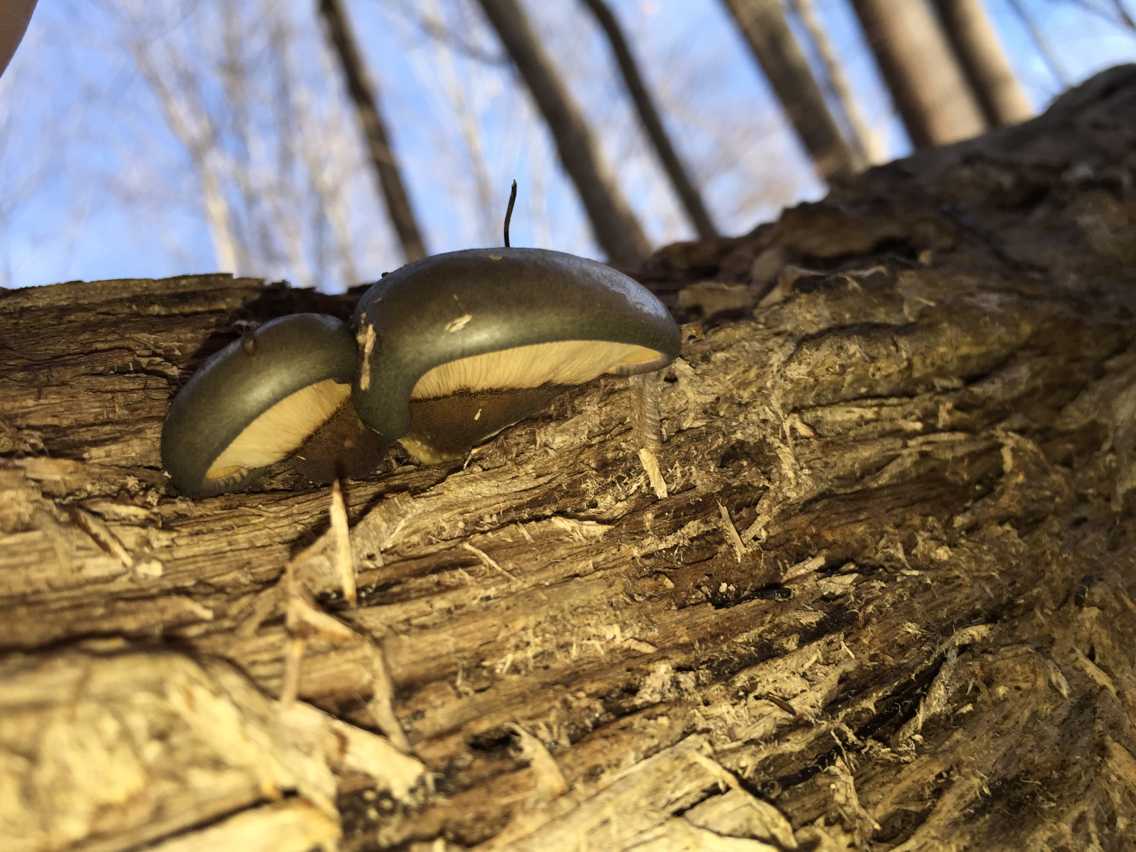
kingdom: Fungi
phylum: Basidiomycota
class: Agaricomycetes
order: Agaricales
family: Sarcomyxaceae
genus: Sarcomyxa
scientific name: Sarcomyxa serotina
